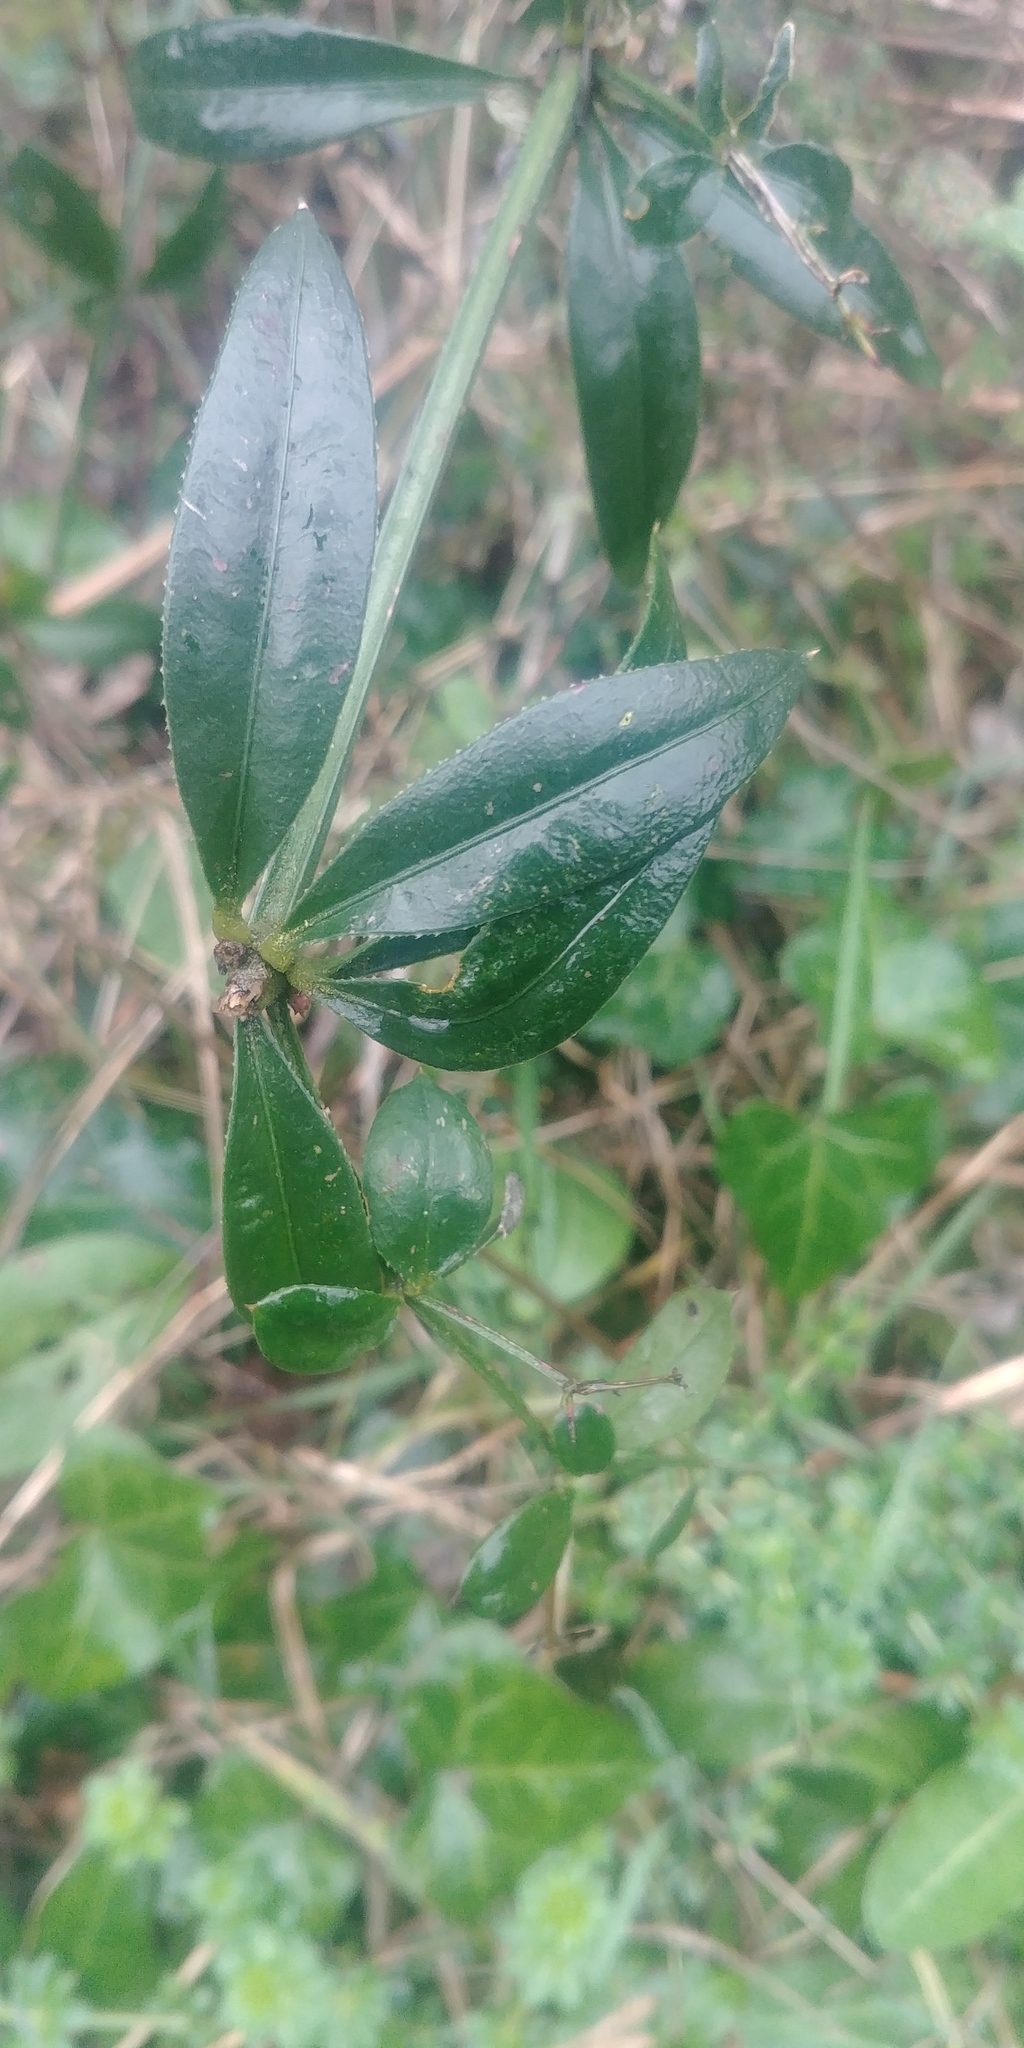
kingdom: Plantae
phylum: Tracheophyta
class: Magnoliopsida
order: Gentianales
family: Rubiaceae
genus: Rubia
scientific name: Rubia peregrina
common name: Wild madder
